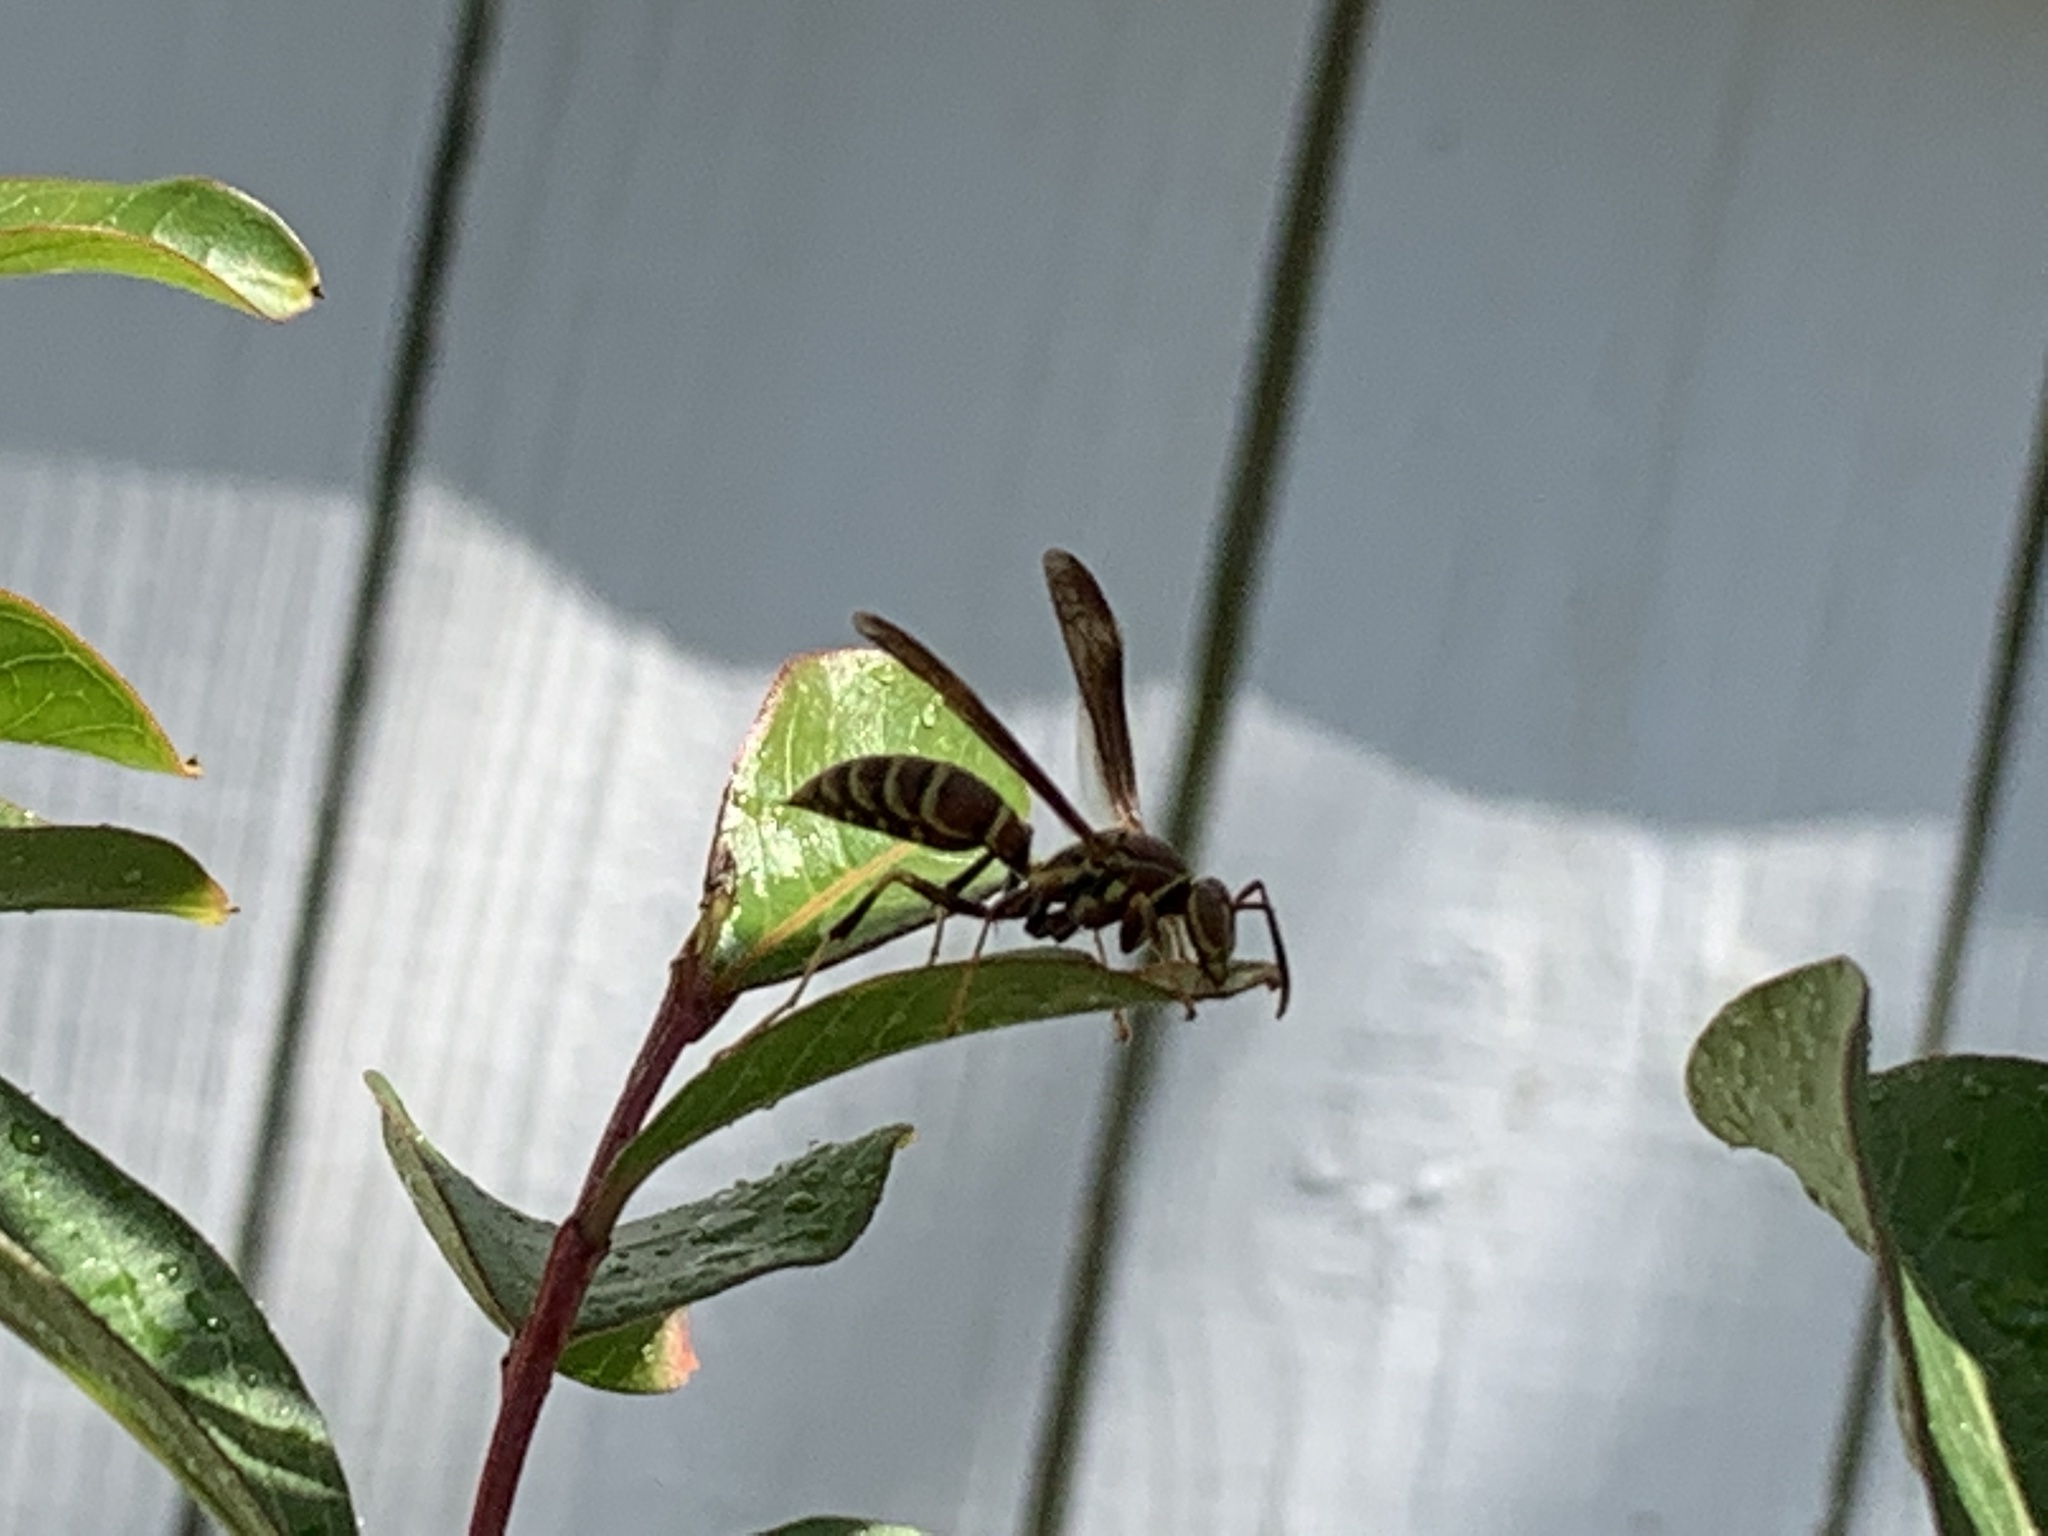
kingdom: Animalia
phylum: Arthropoda
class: Insecta
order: Hymenoptera
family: Eumenidae
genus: Polistes
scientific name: Polistes exclamans
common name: Paper wasp
